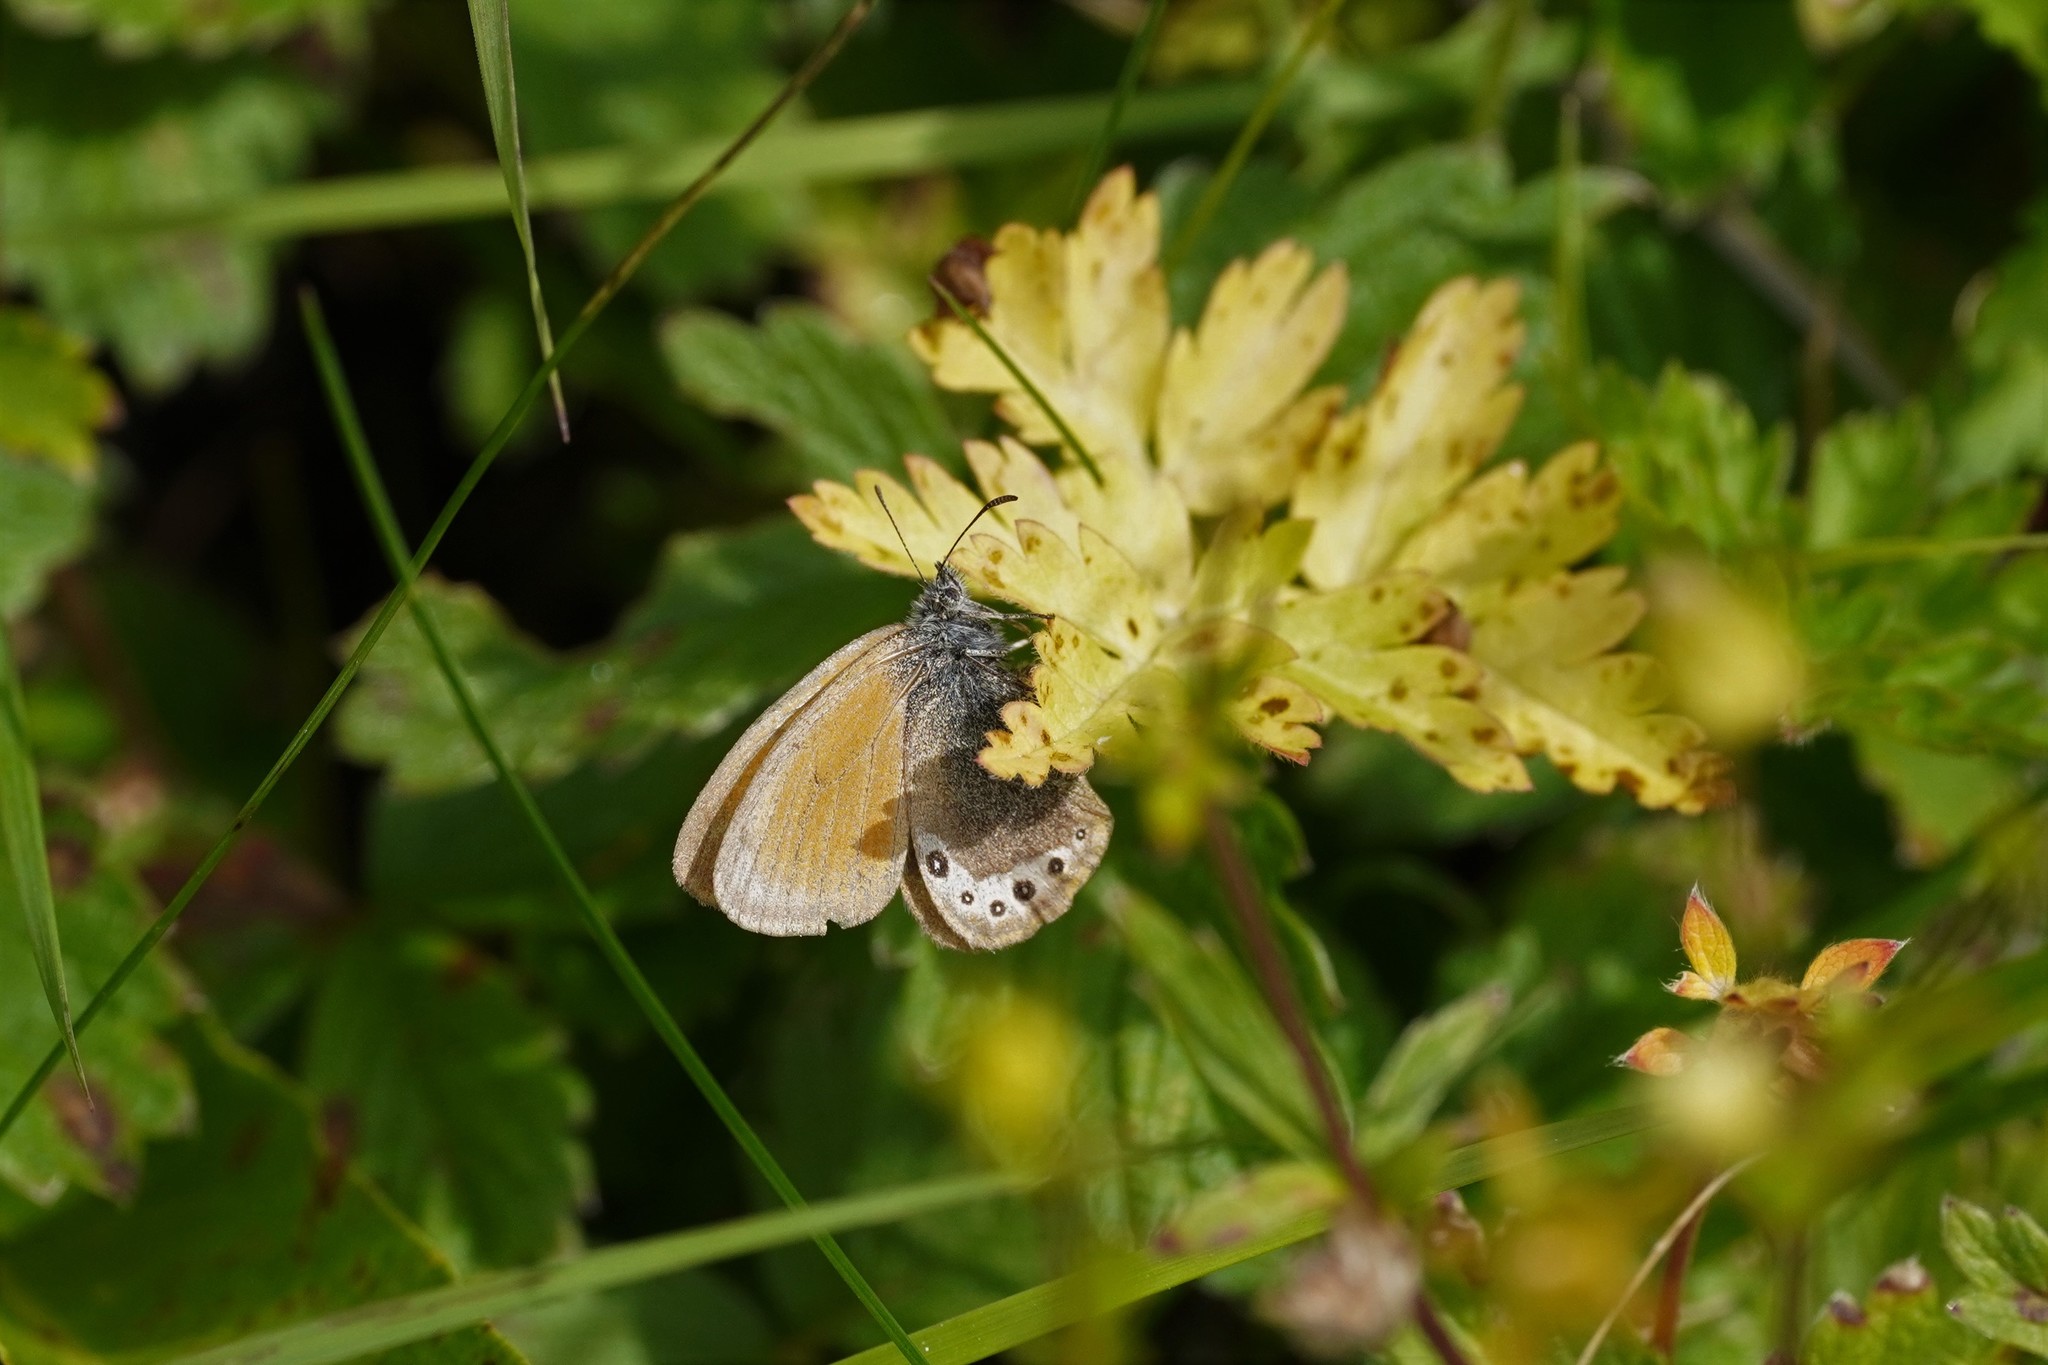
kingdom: Animalia
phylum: Arthropoda
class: Insecta
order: Lepidoptera
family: Nymphalidae
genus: Coenonympha
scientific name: Coenonympha
